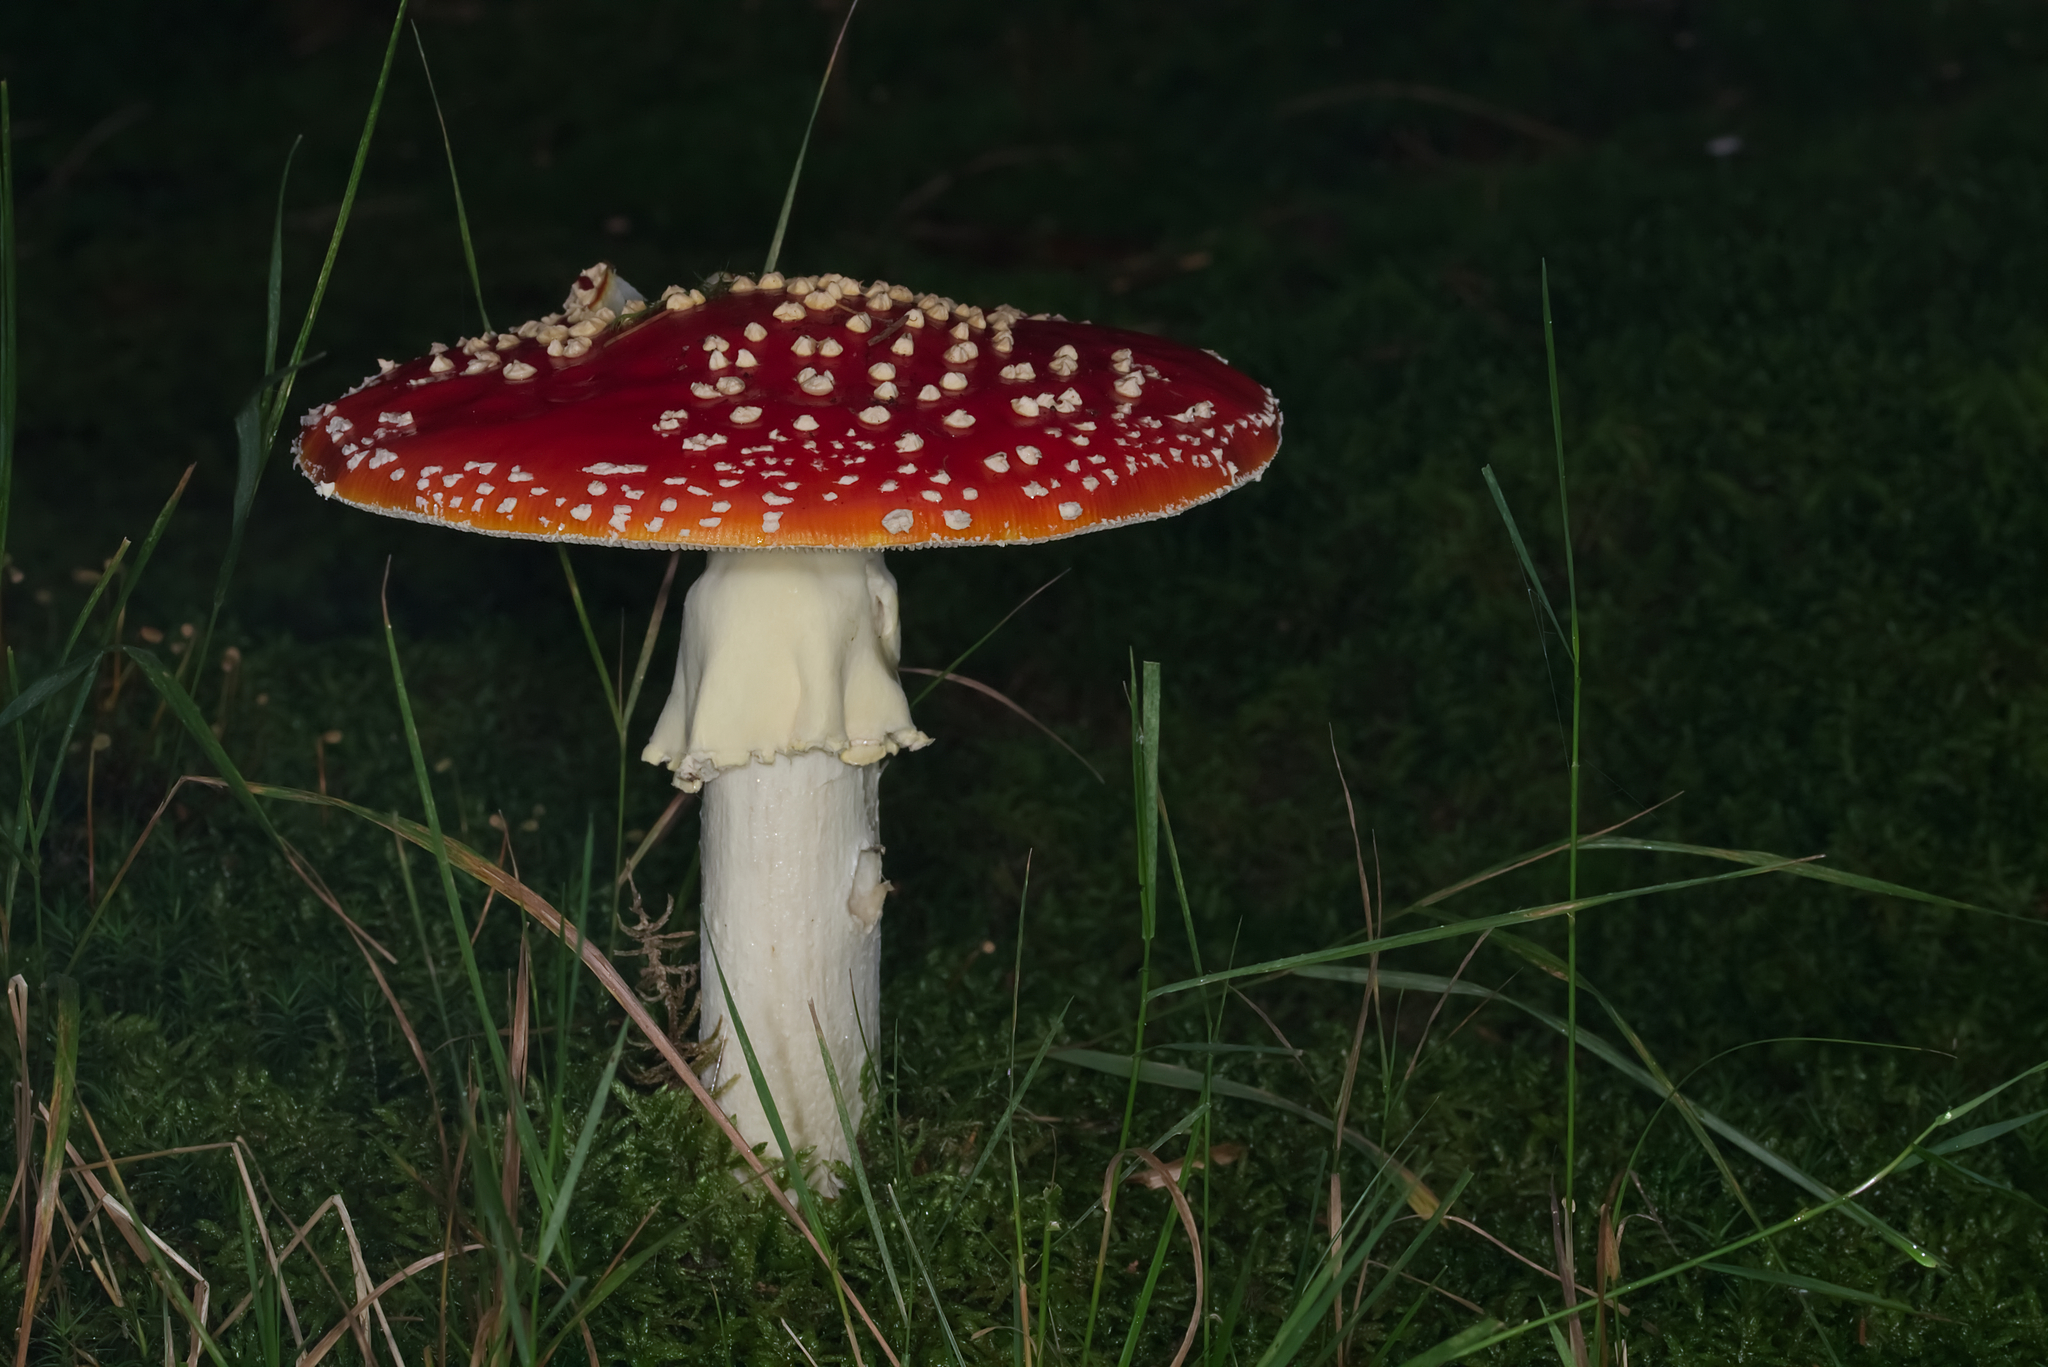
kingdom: Fungi
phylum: Basidiomycota
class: Agaricomycetes
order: Agaricales
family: Amanitaceae
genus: Amanita
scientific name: Amanita muscaria
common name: Fly agaric
